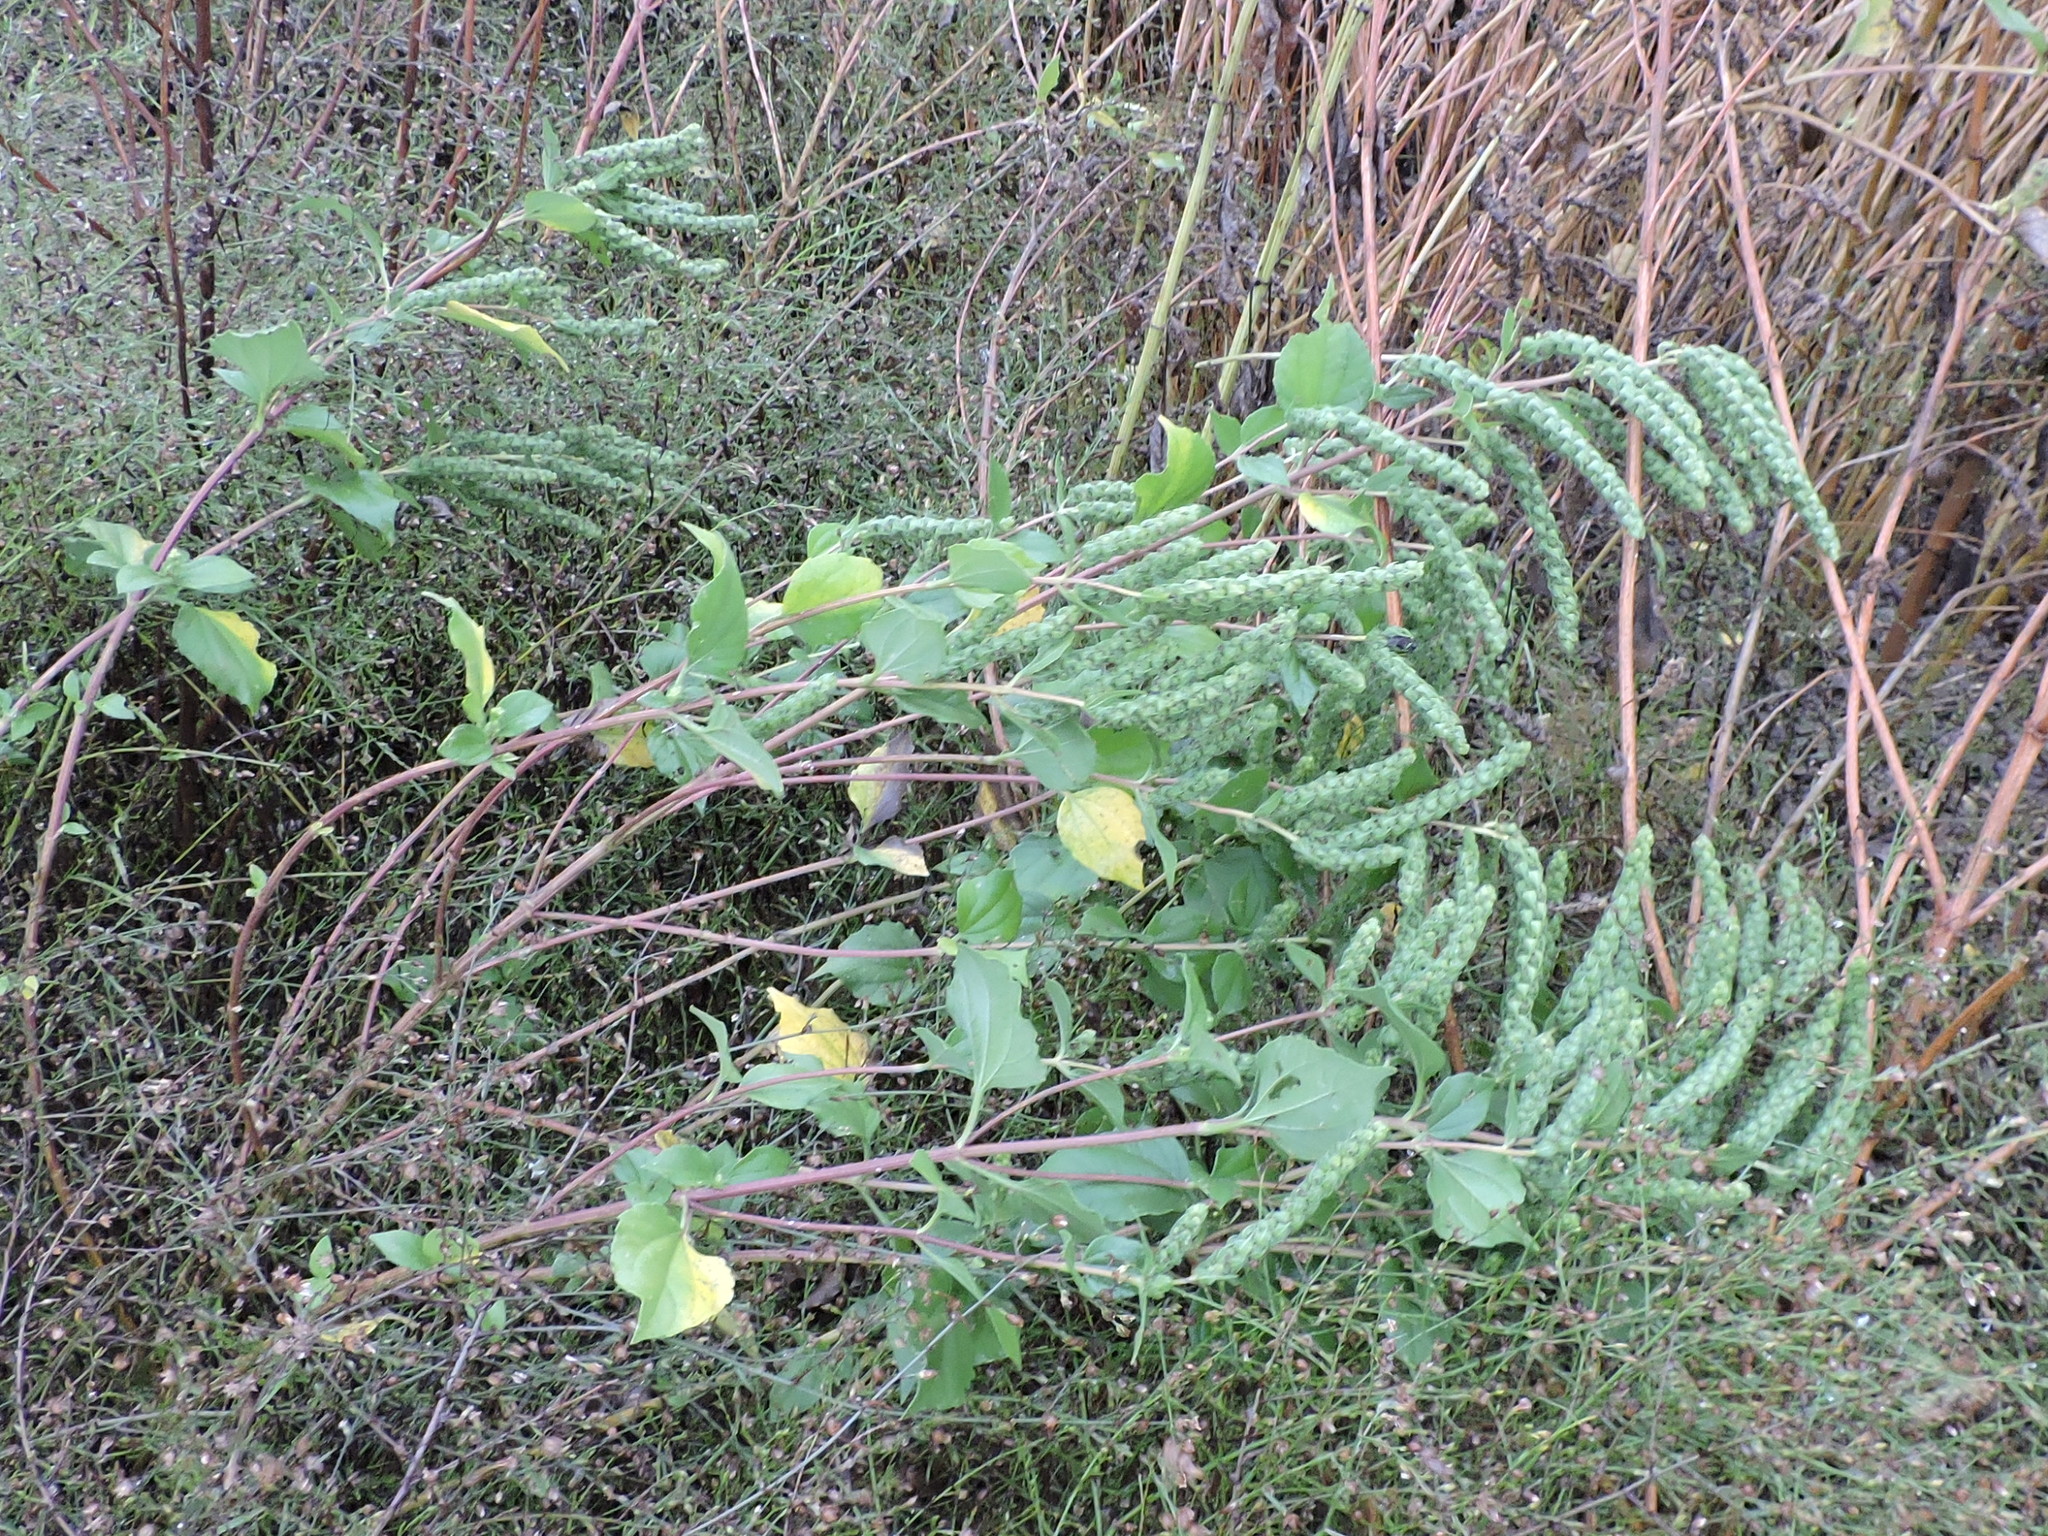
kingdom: Plantae
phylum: Tracheophyta
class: Magnoliopsida
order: Asterales
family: Asteraceae
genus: Iva
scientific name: Iva annua
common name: Marsh-elder
